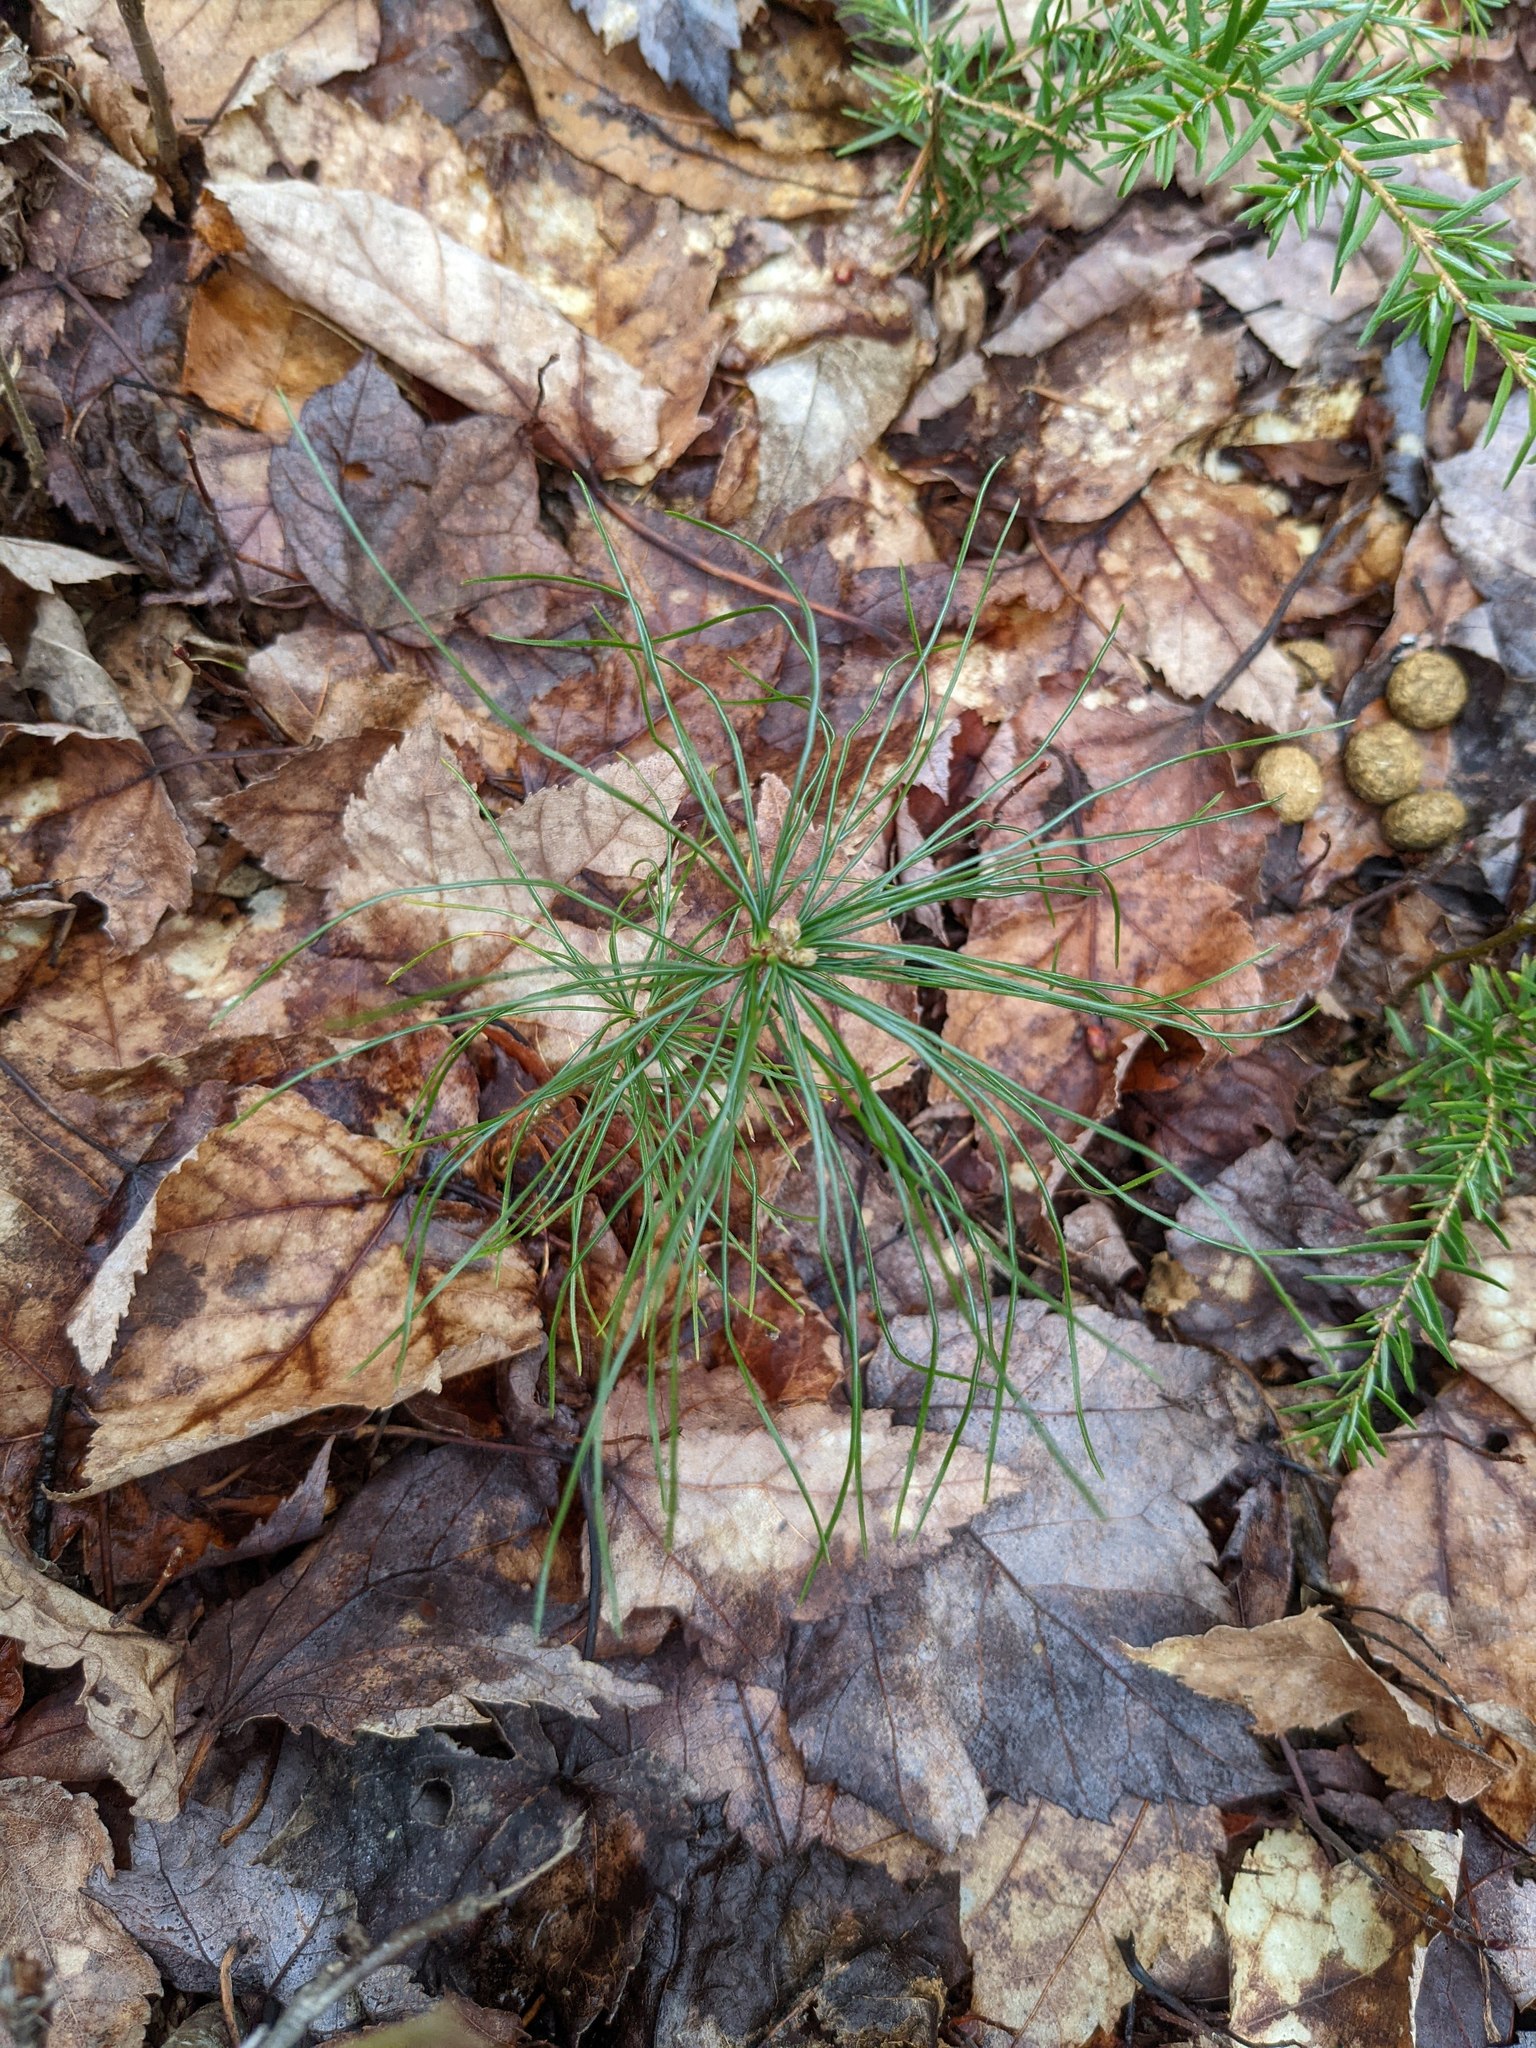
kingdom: Plantae
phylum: Tracheophyta
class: Pinopsida
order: Pinales
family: Pinaceae
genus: Pinus
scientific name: Pinus strobus
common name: Weymouth pine
